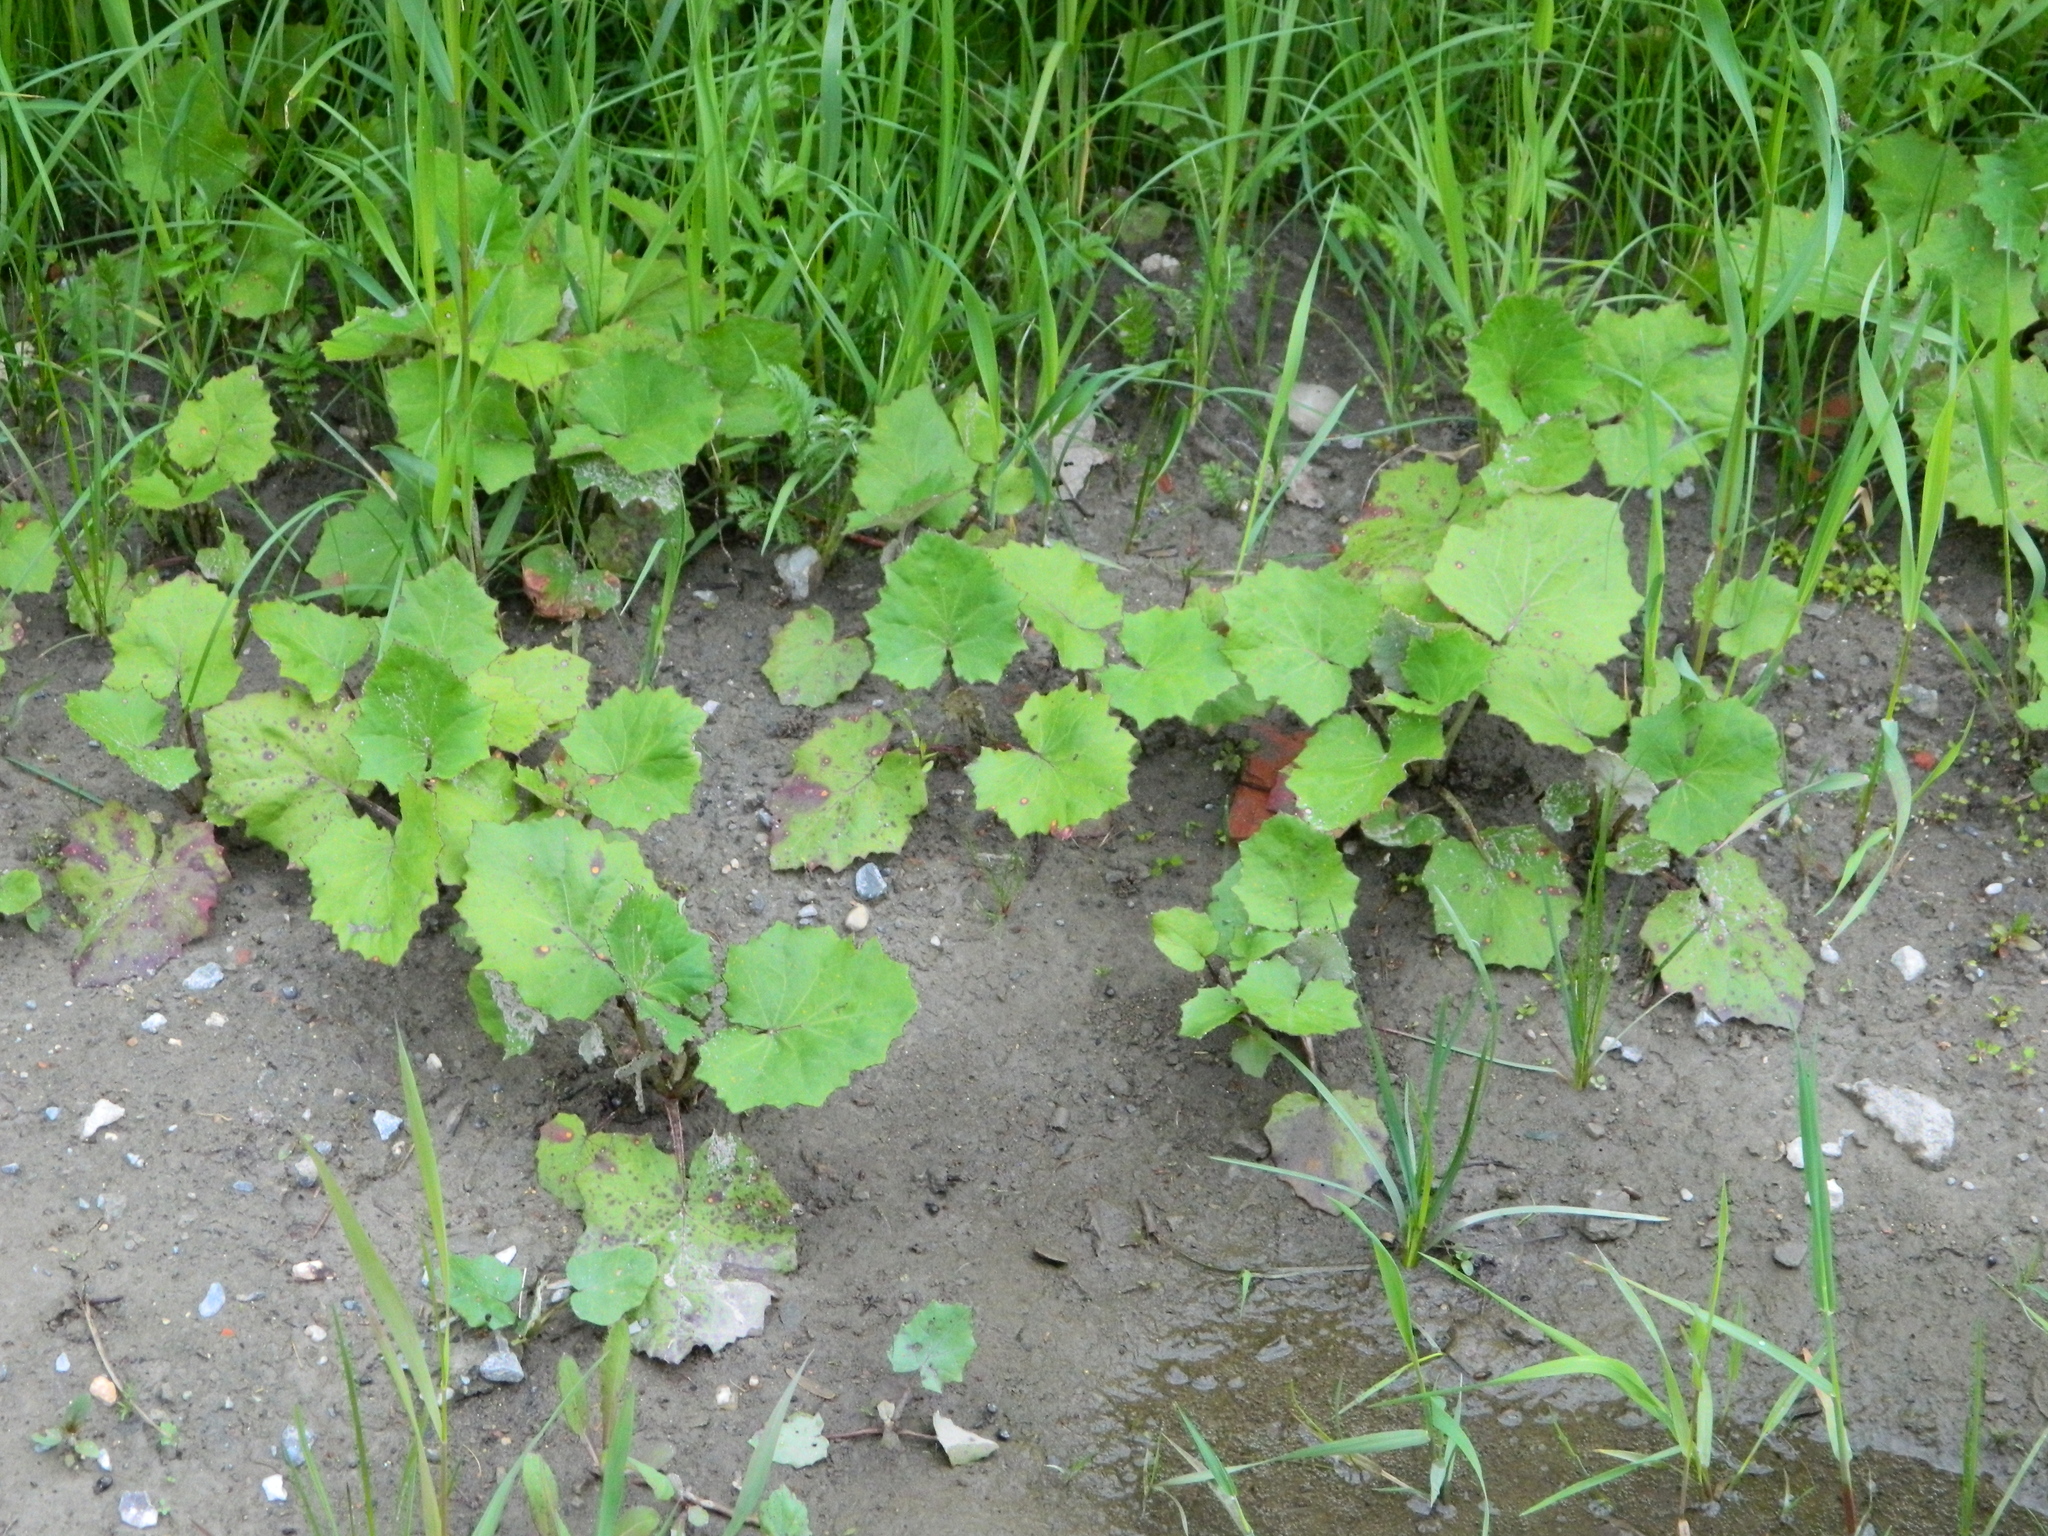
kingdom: Plantae
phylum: Tracheophyta
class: Magnoliopsida
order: Asterales
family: Asteraceae
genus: Tussilago
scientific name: Tussilago farfara
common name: Coltsfoot
